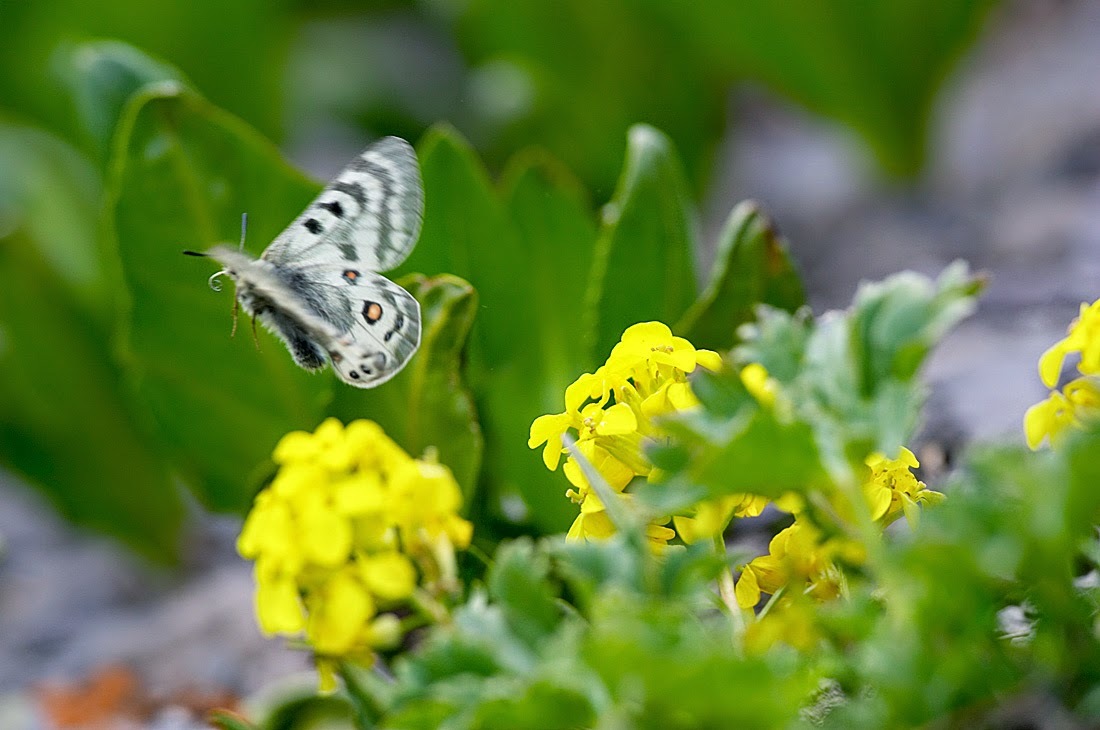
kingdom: Animalia
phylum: Arthropoda
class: Insecta
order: Lepidoptera
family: Papilionidae
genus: Parnassius
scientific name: Parnassius delphius
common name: Banded apollo
